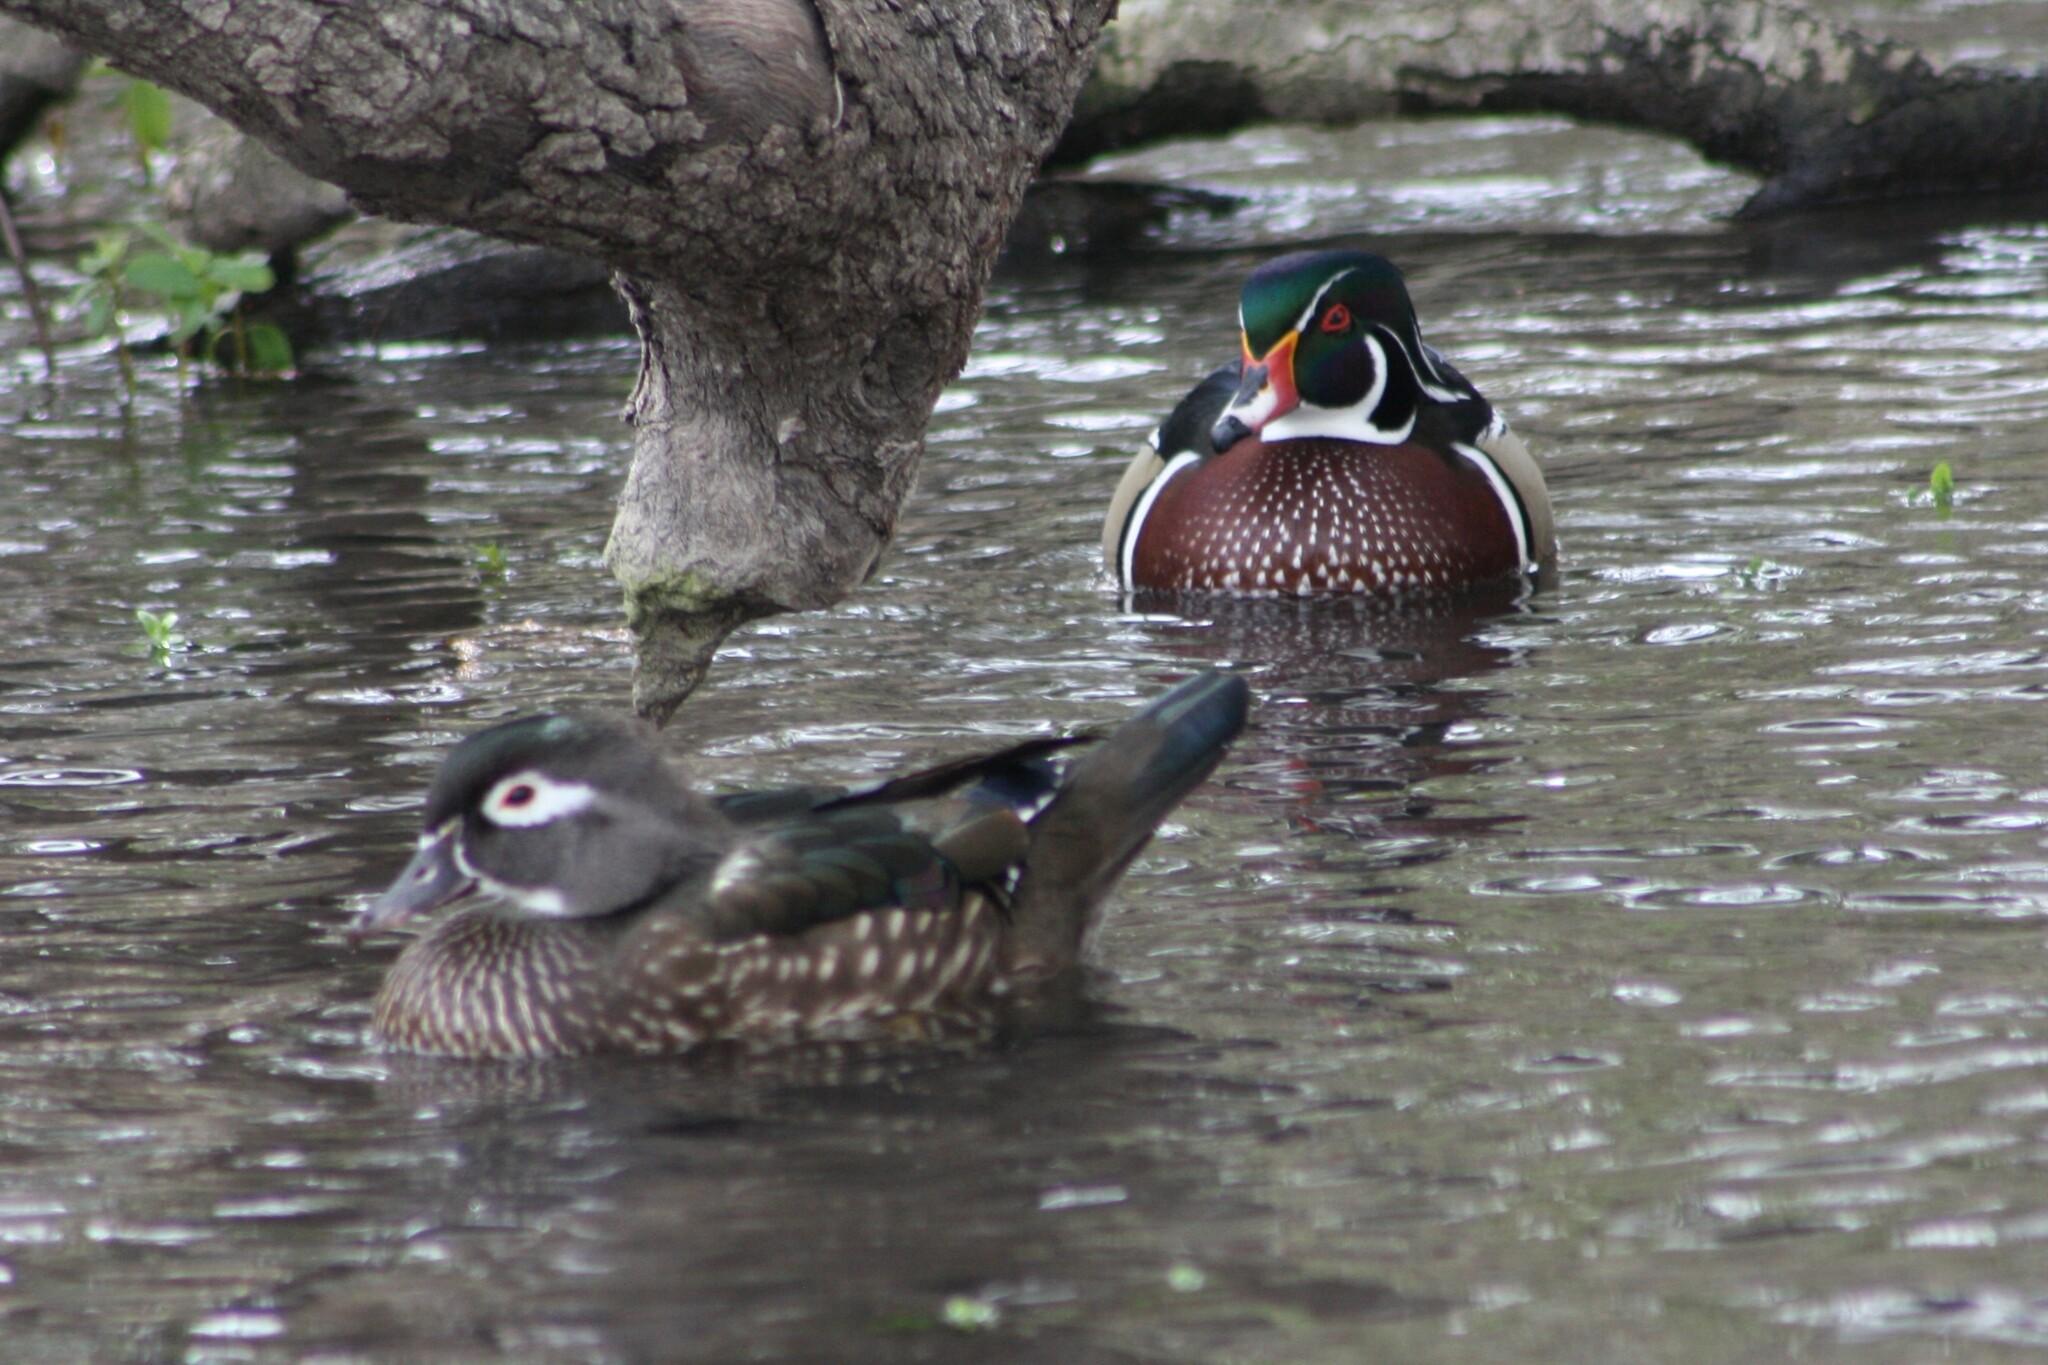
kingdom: Animalia
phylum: Chordata
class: Aves
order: Anseriformes
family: Anatidae
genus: Aix
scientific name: Aix sponsa
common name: Wood duck
